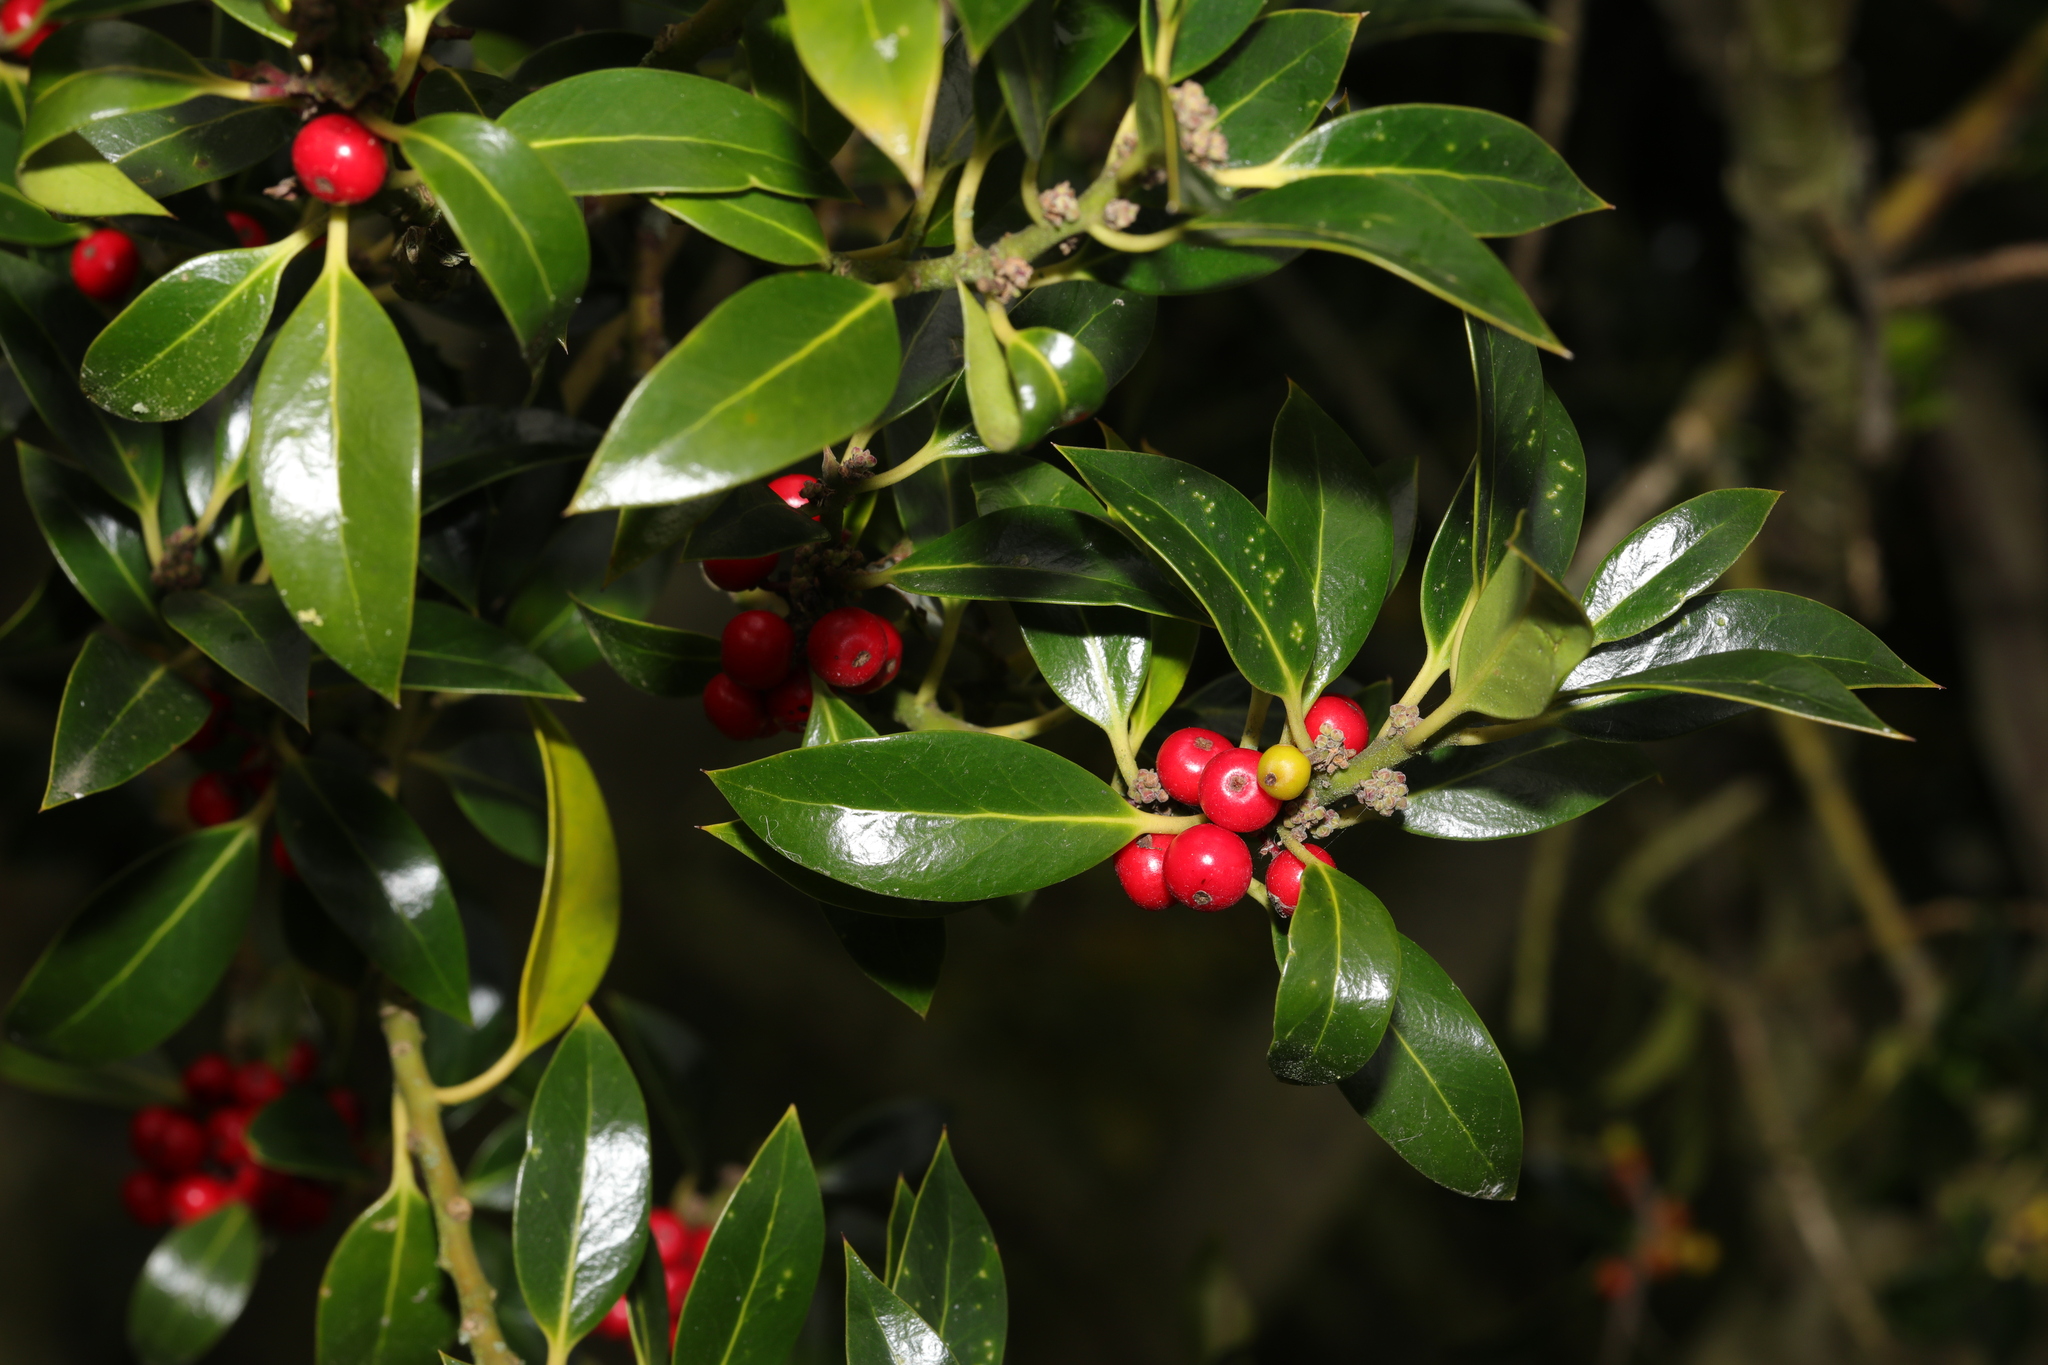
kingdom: Plantae
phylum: Tracheophyta
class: Magnoliopsida
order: Aquifoliales
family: Aquifoliaceae
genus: Ilex
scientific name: Ilex altaclerensis
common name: Highclere holly
